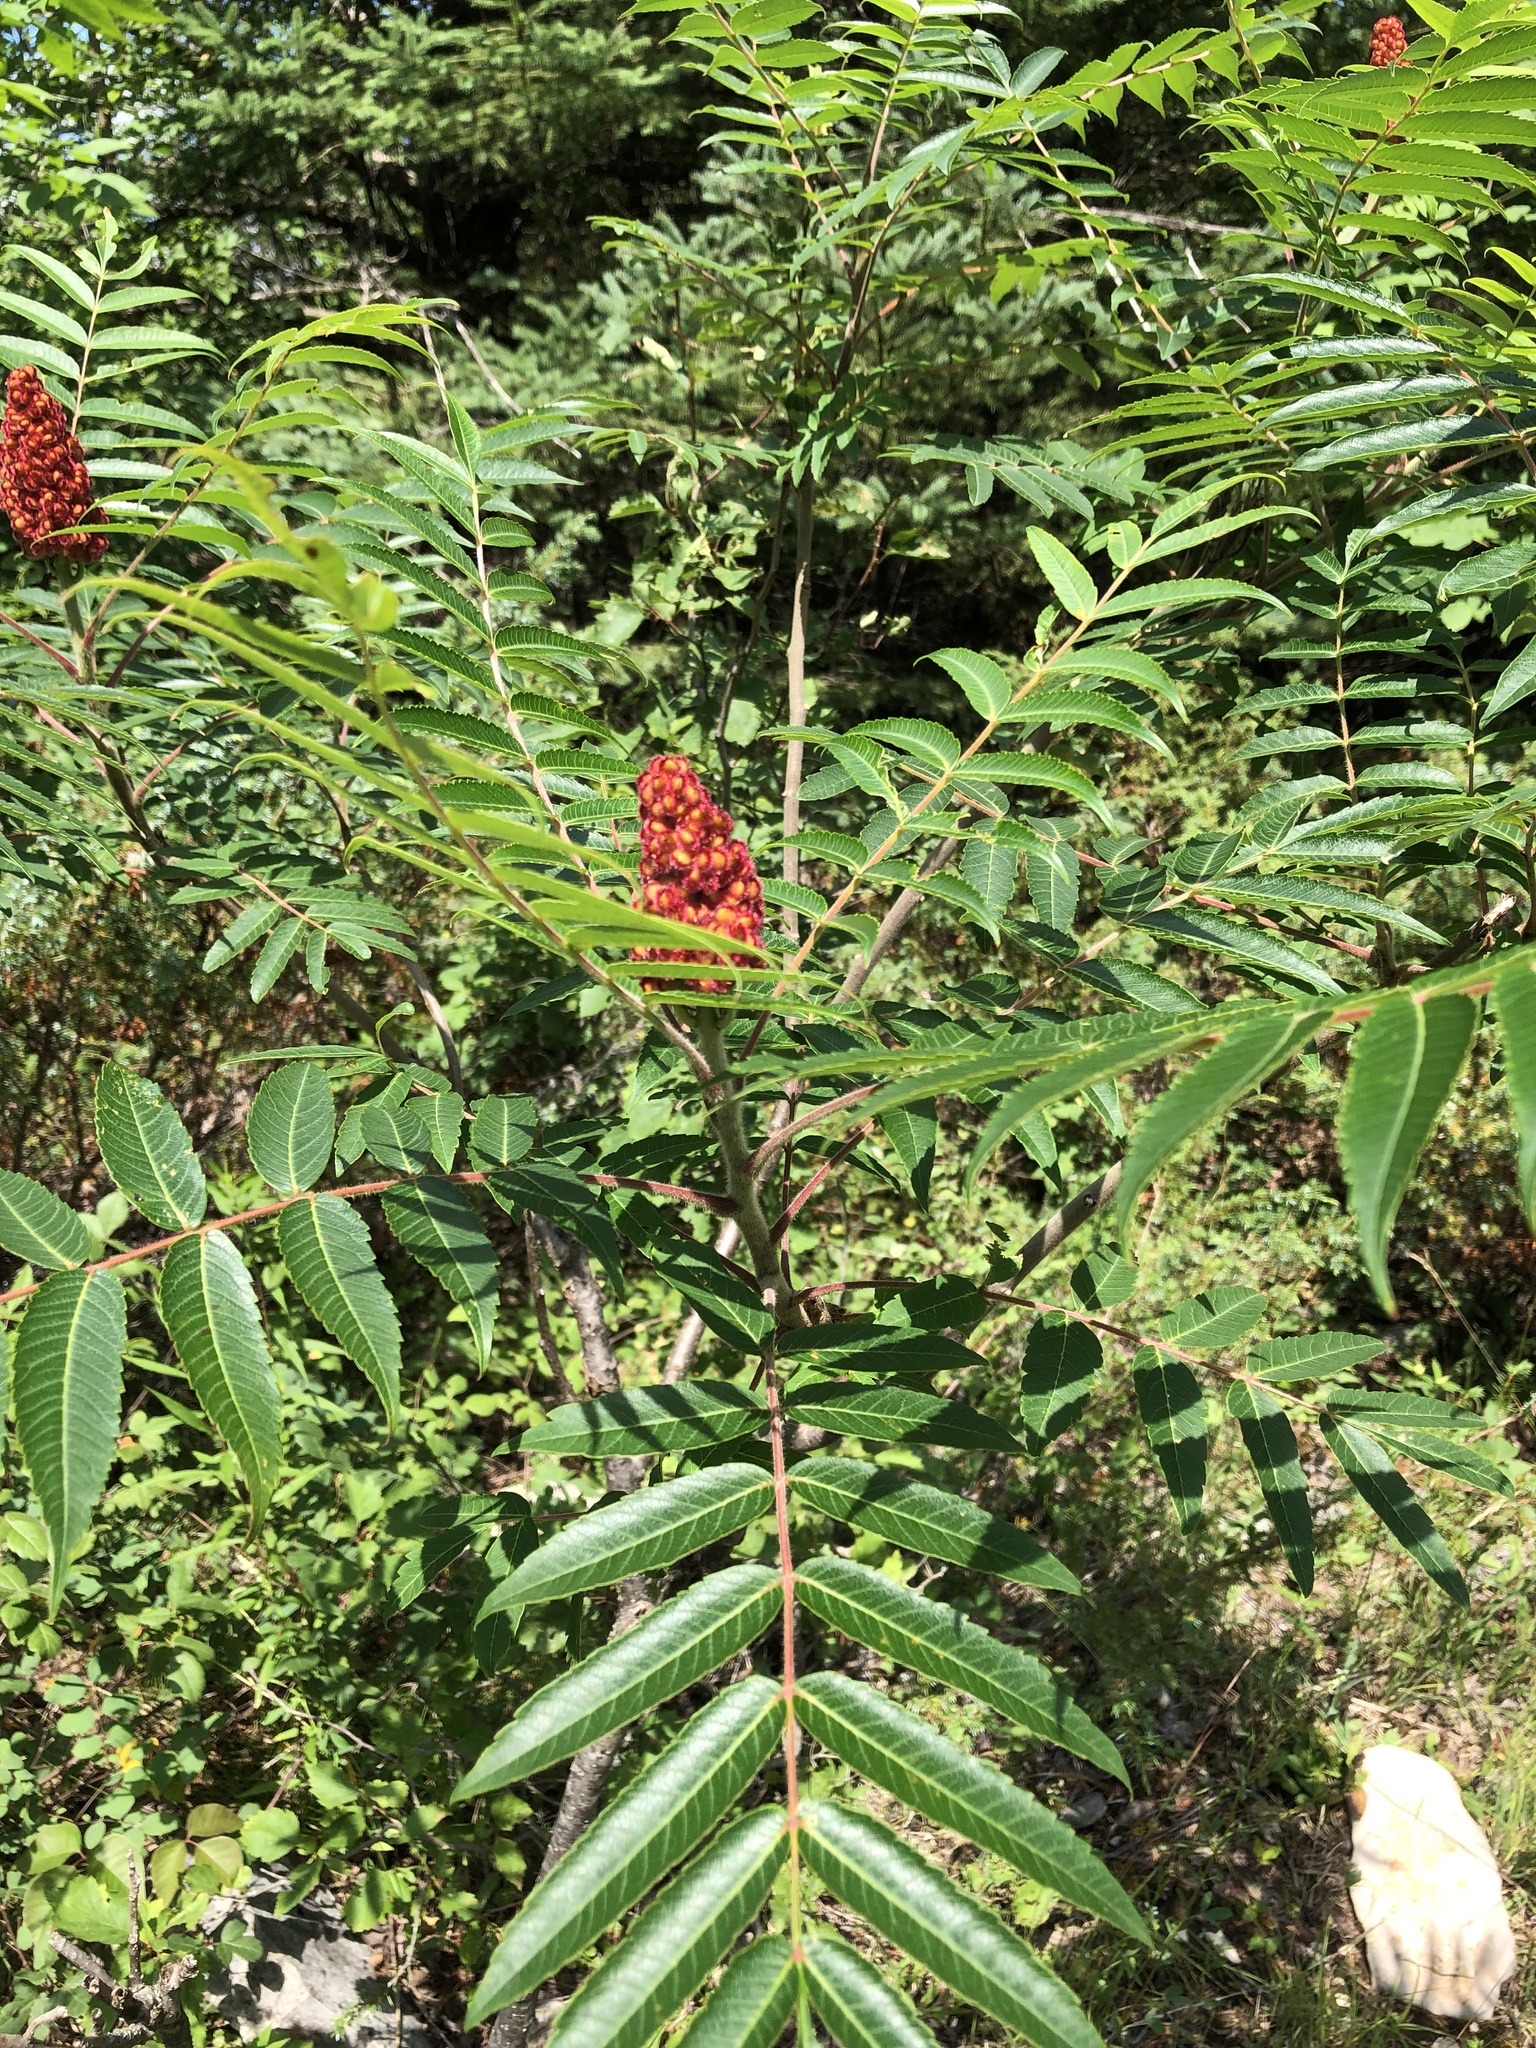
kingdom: Plantae
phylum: Tracheophyta
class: Magnoliopsida
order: Sapindales
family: Anacardiaceae
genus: Rhus
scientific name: Rhus typhina
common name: Staghorn sumac
